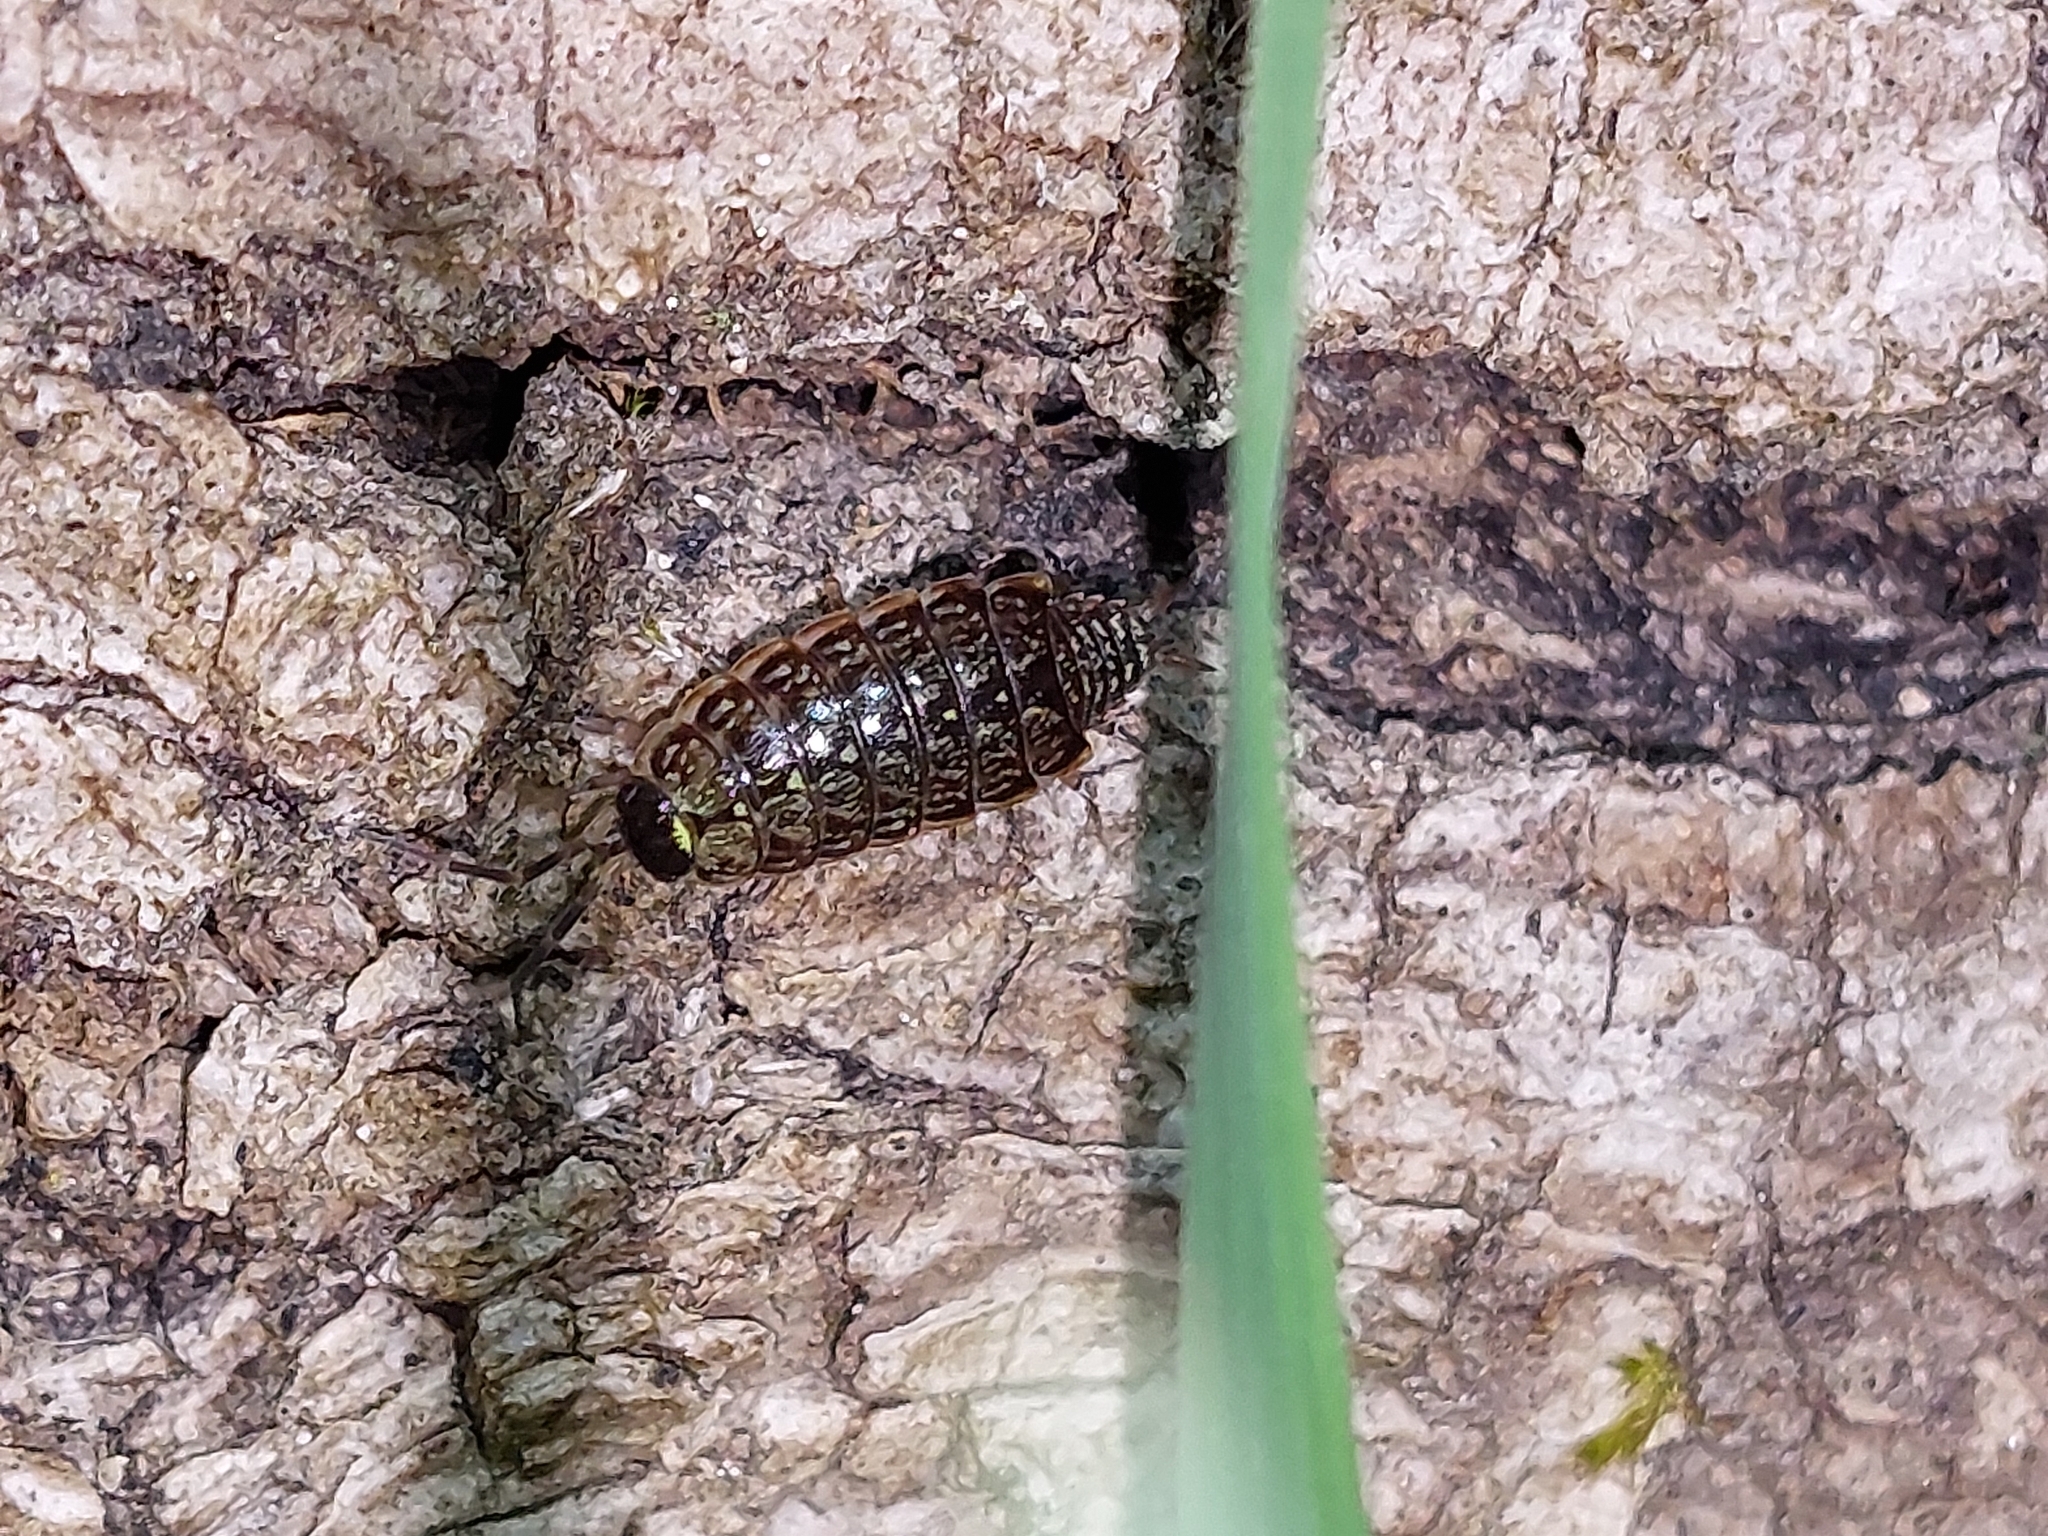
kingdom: Animalia
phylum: Arthropoda
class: Malacostraca
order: Isopoda
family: Philosciidae
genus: Philoscia
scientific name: Philoscia muscorum
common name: Common striped woodlouse
